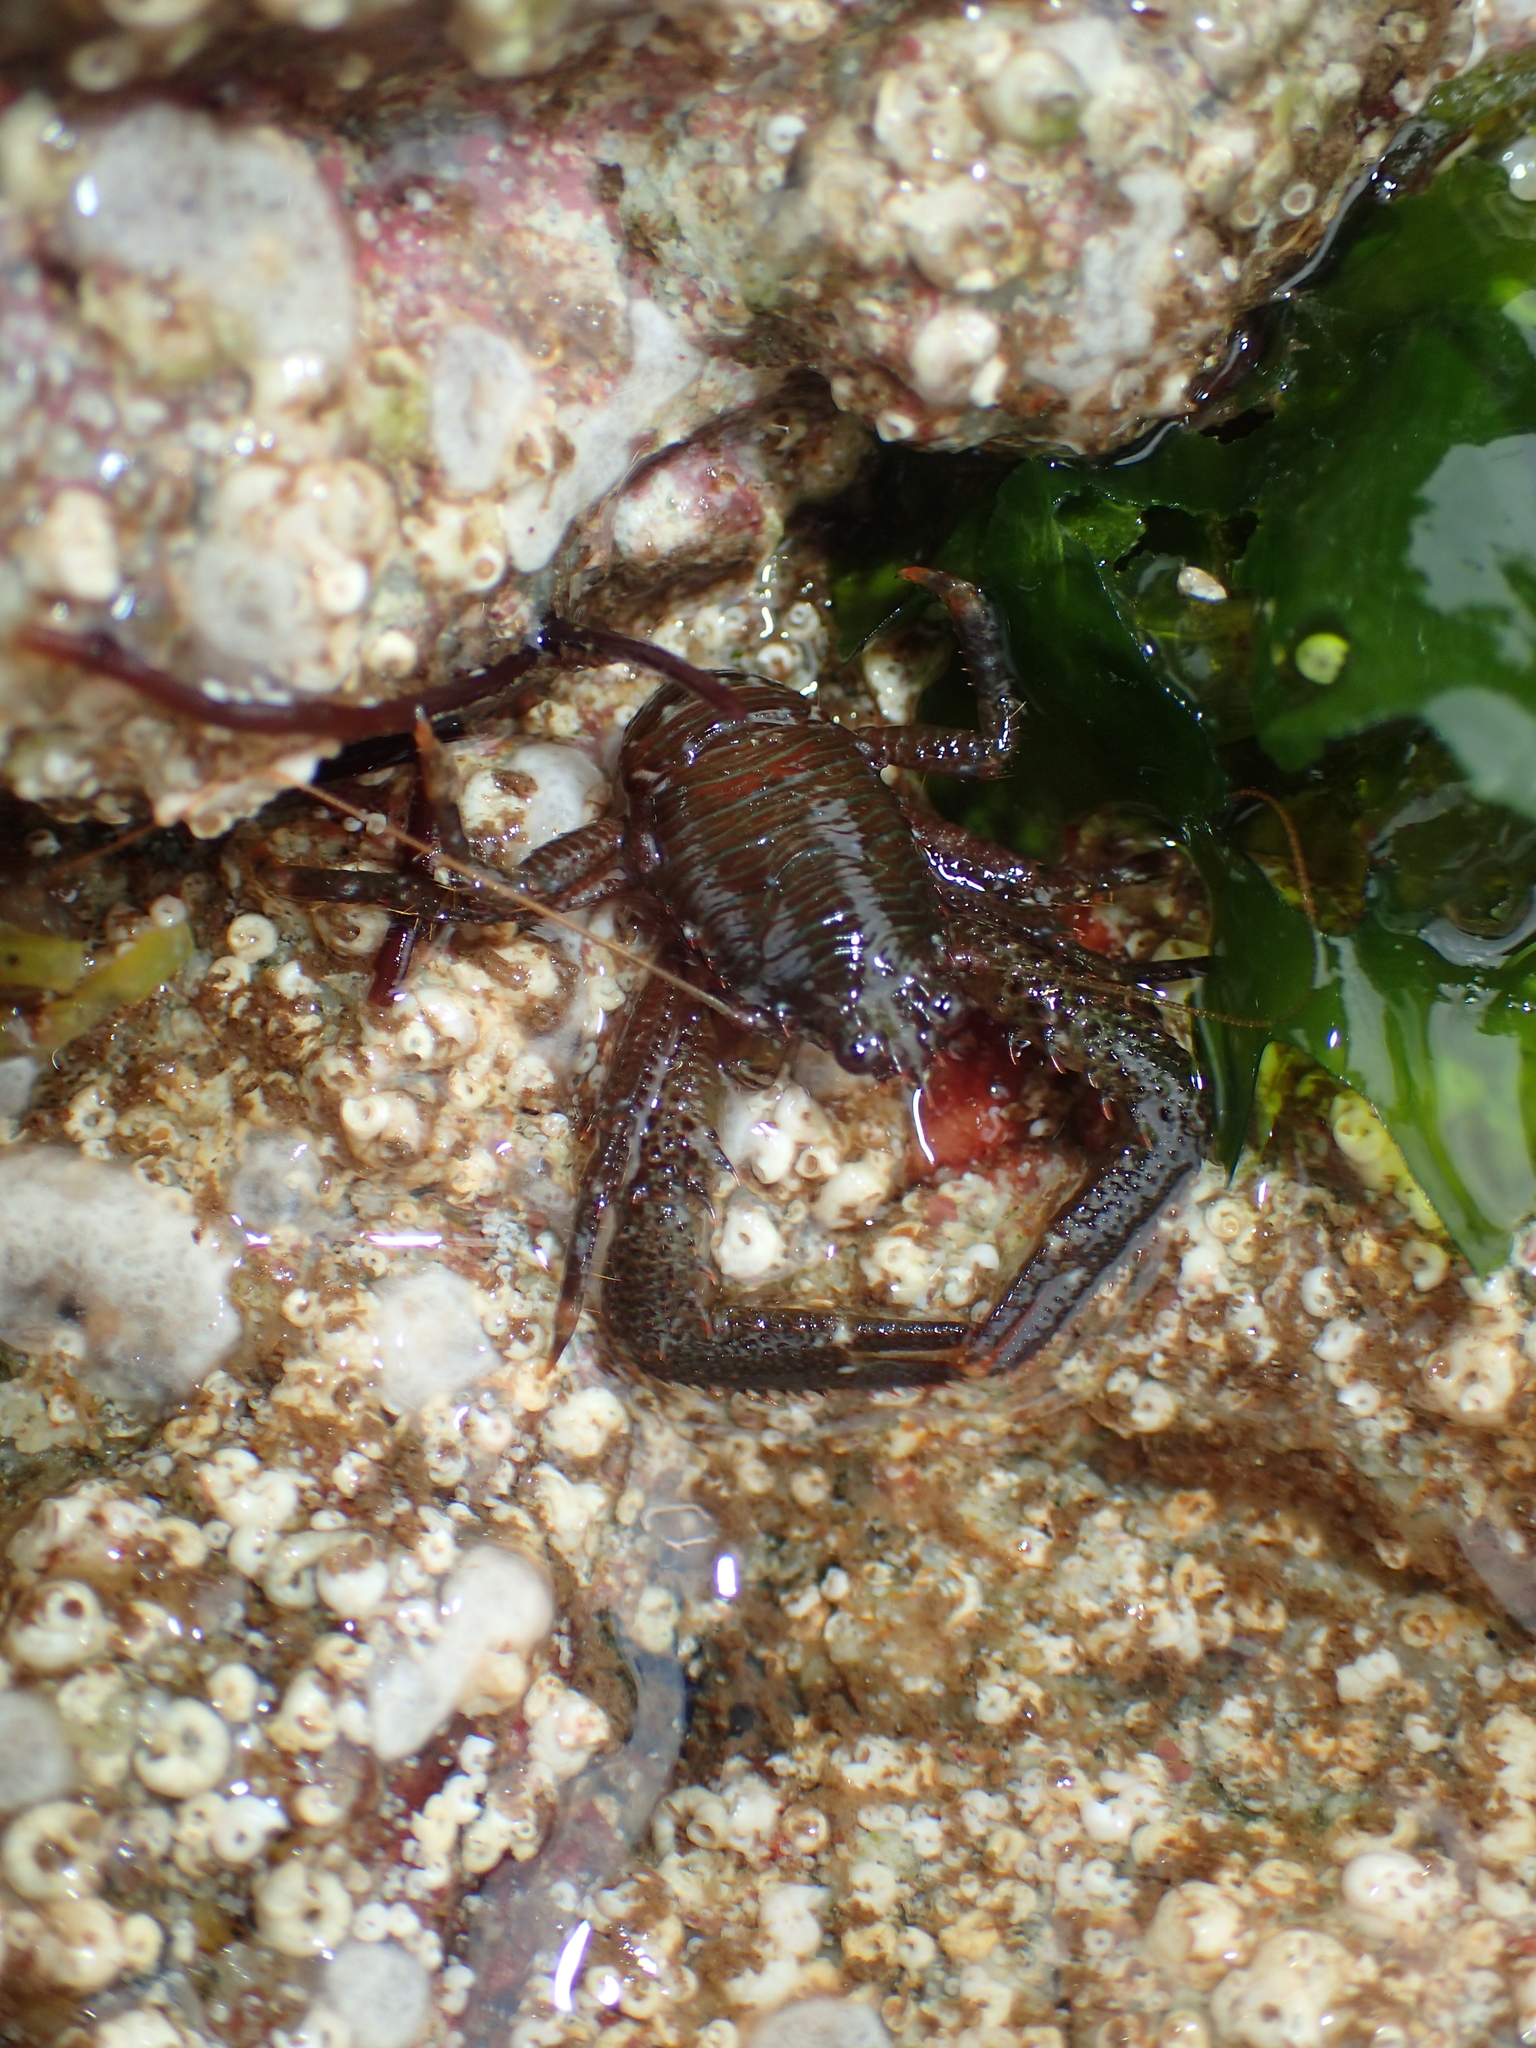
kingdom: Animalia
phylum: Arthropoda
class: Malacostraca
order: Decapoda
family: Galatheidae
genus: Galathea
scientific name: Galathea squamifera
